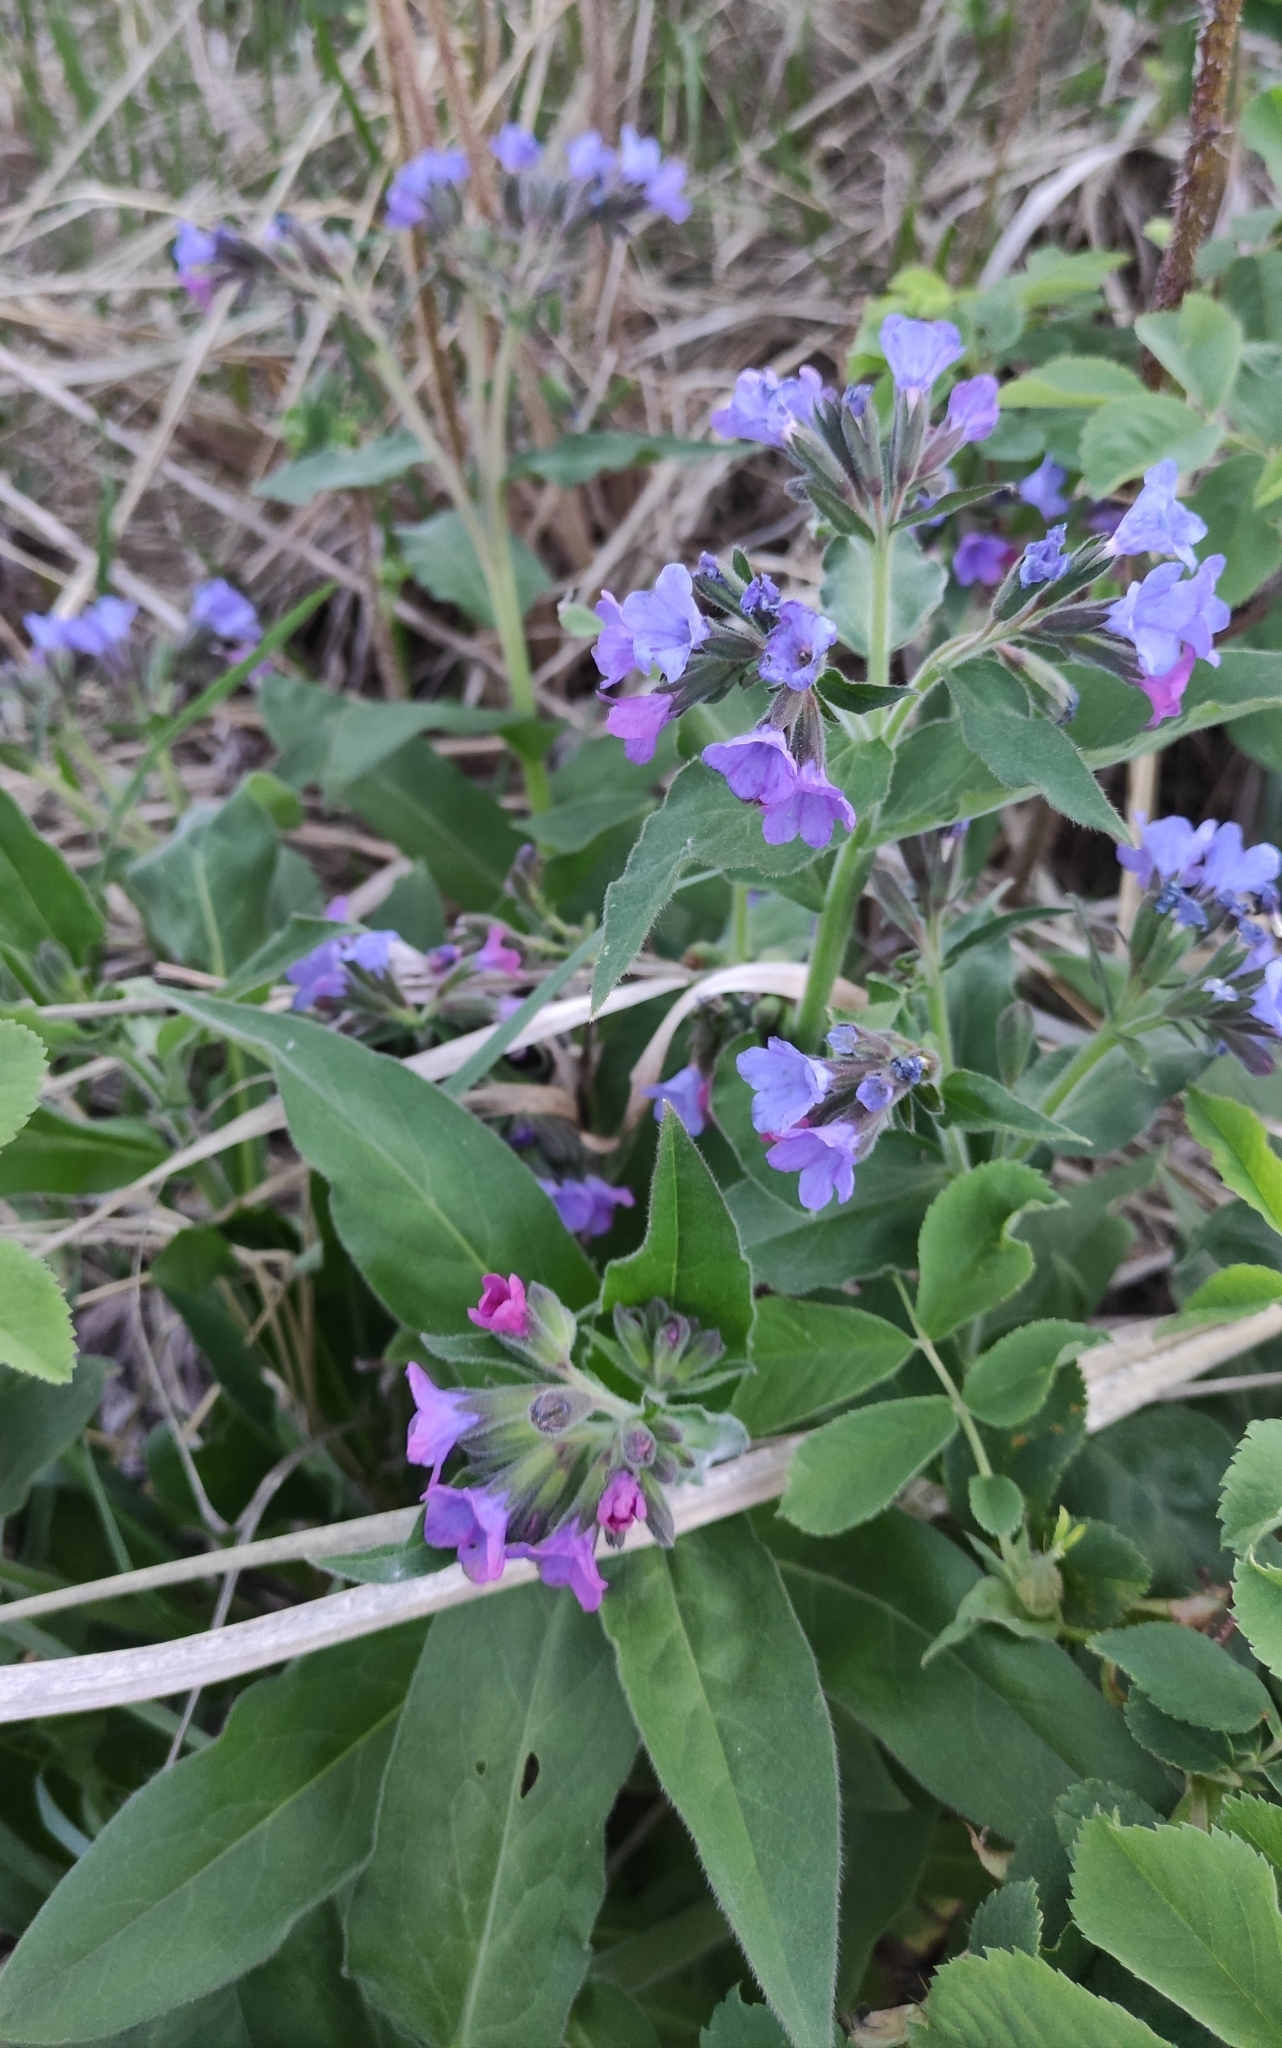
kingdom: Plantae
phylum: Tracheophyta
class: Magnoliopsida
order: Boraginales
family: Boraginaceae
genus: Pulmonaria
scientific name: Pulmonaria mollis
